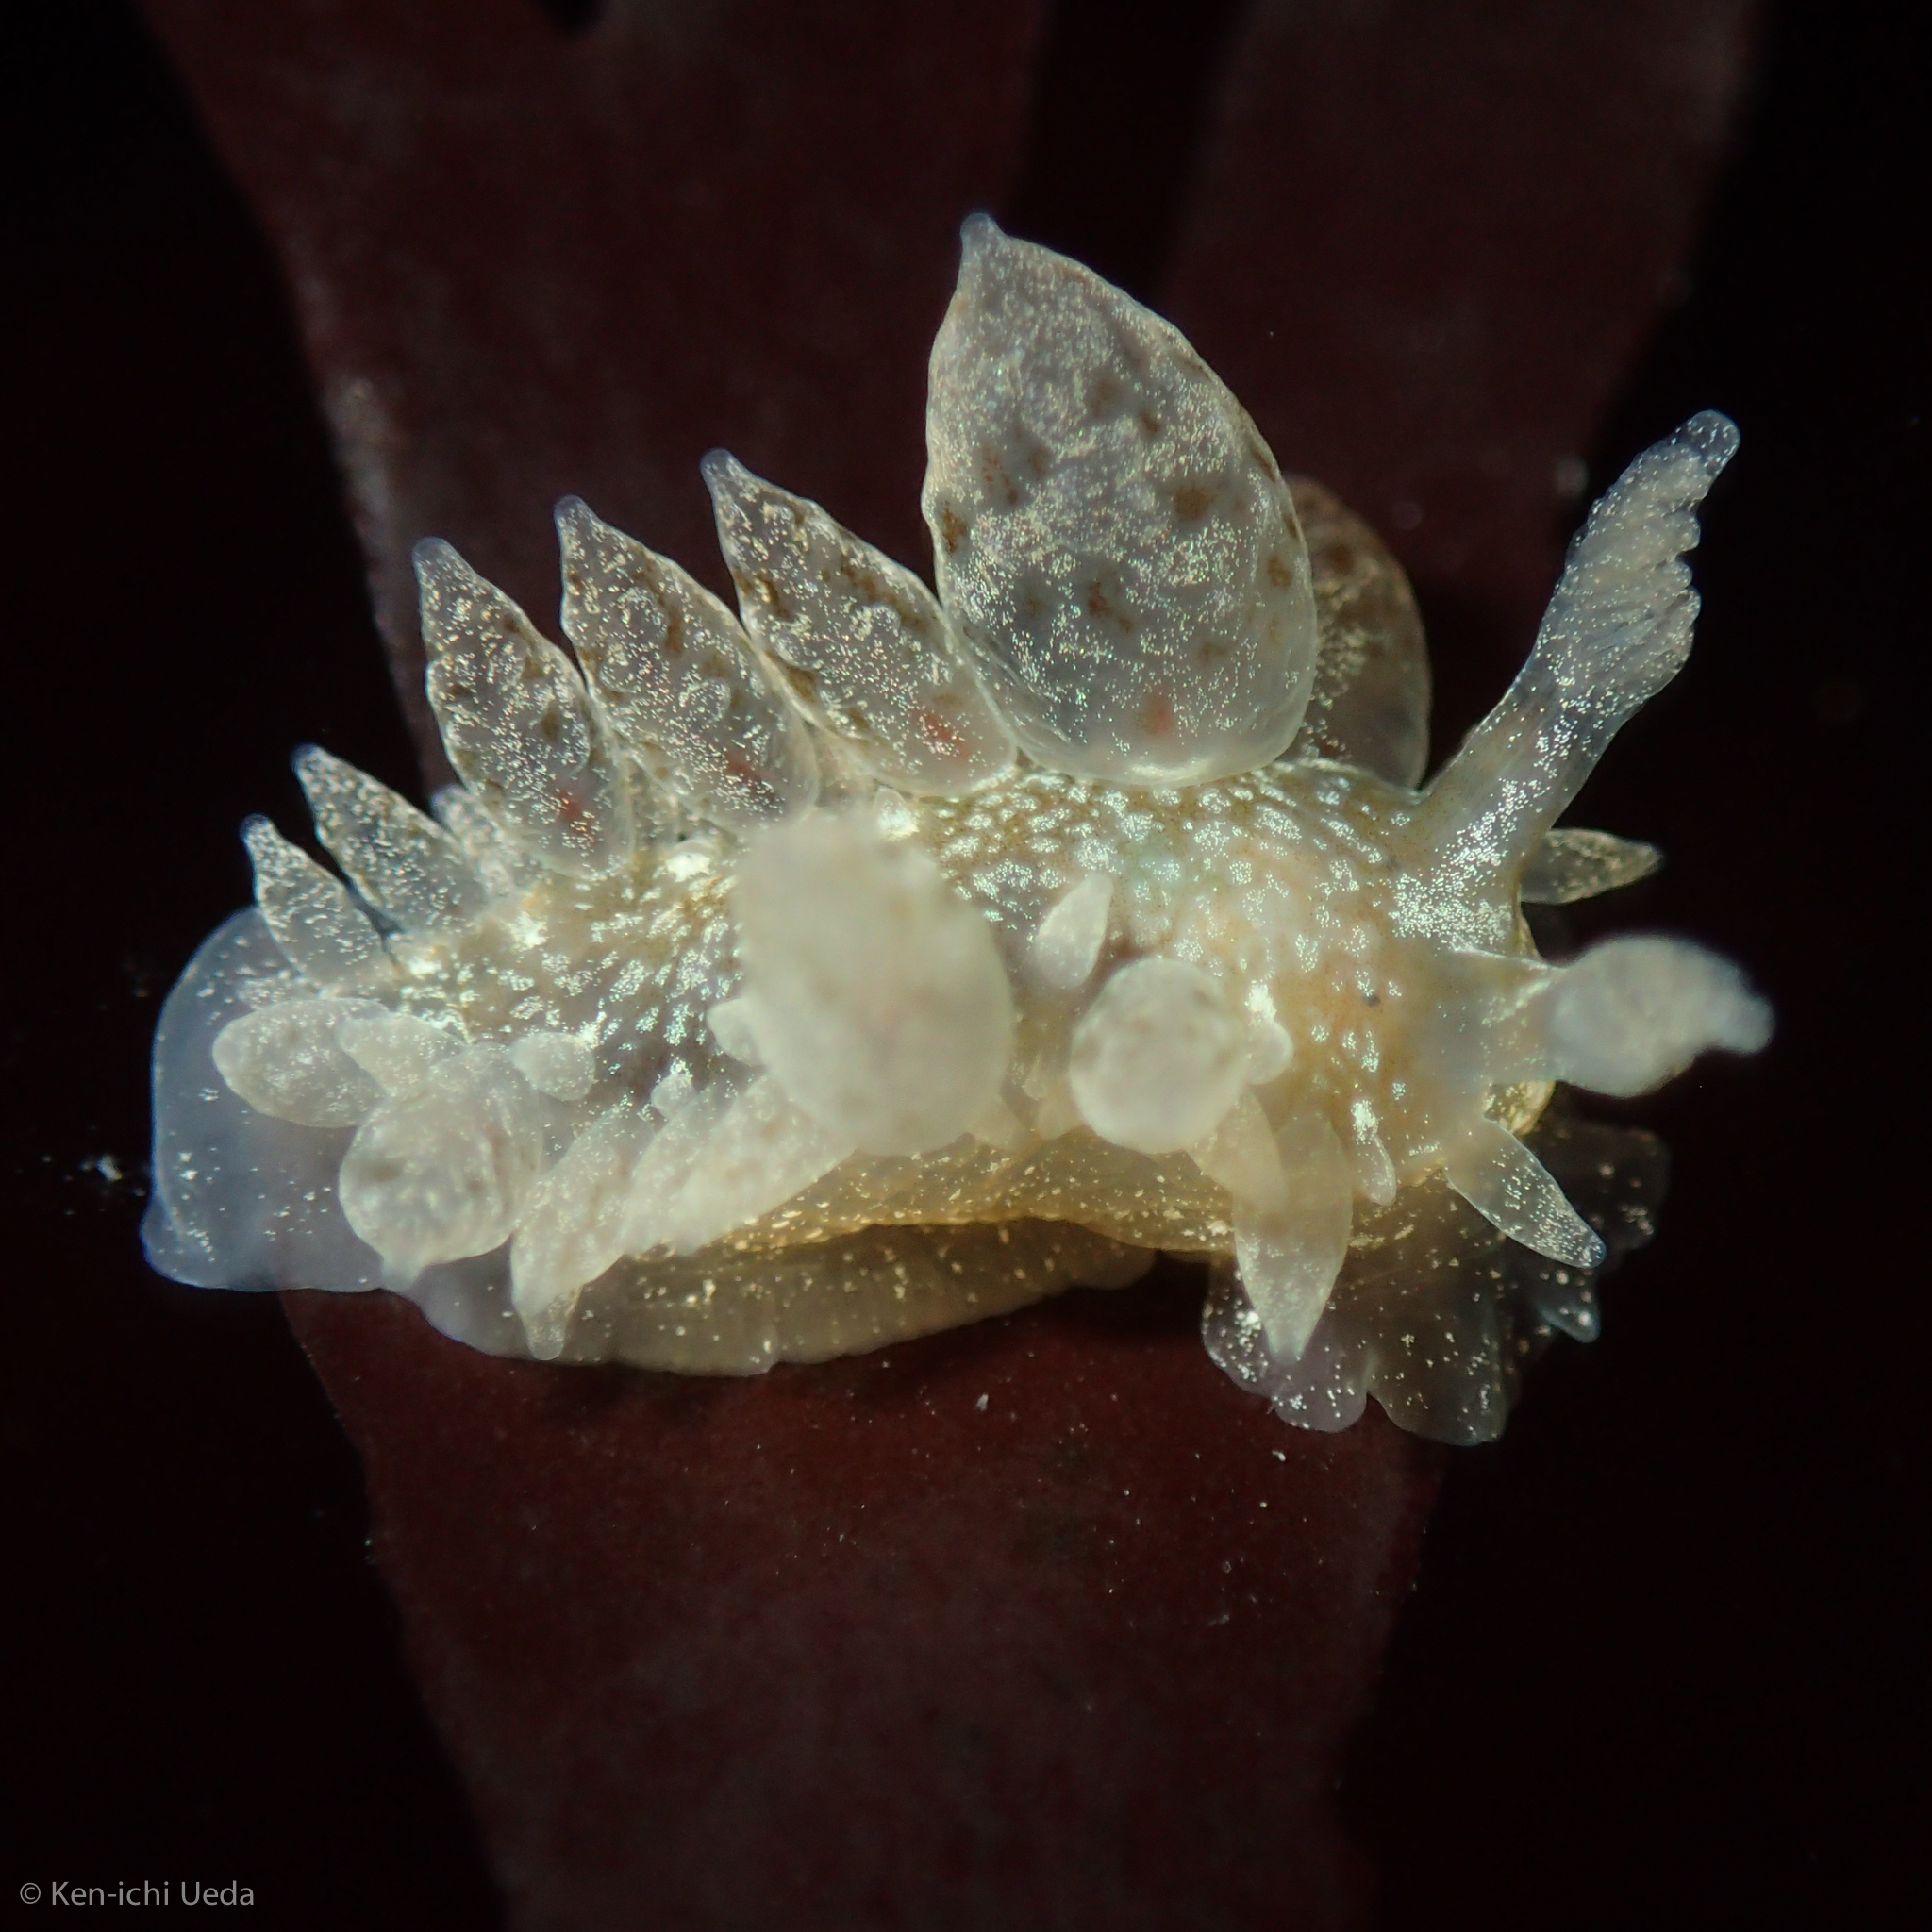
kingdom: Animalia
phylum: Mollusca
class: Gastropoda
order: Nudibranchia
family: Dironidae
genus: Dirona
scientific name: Dirona picta
